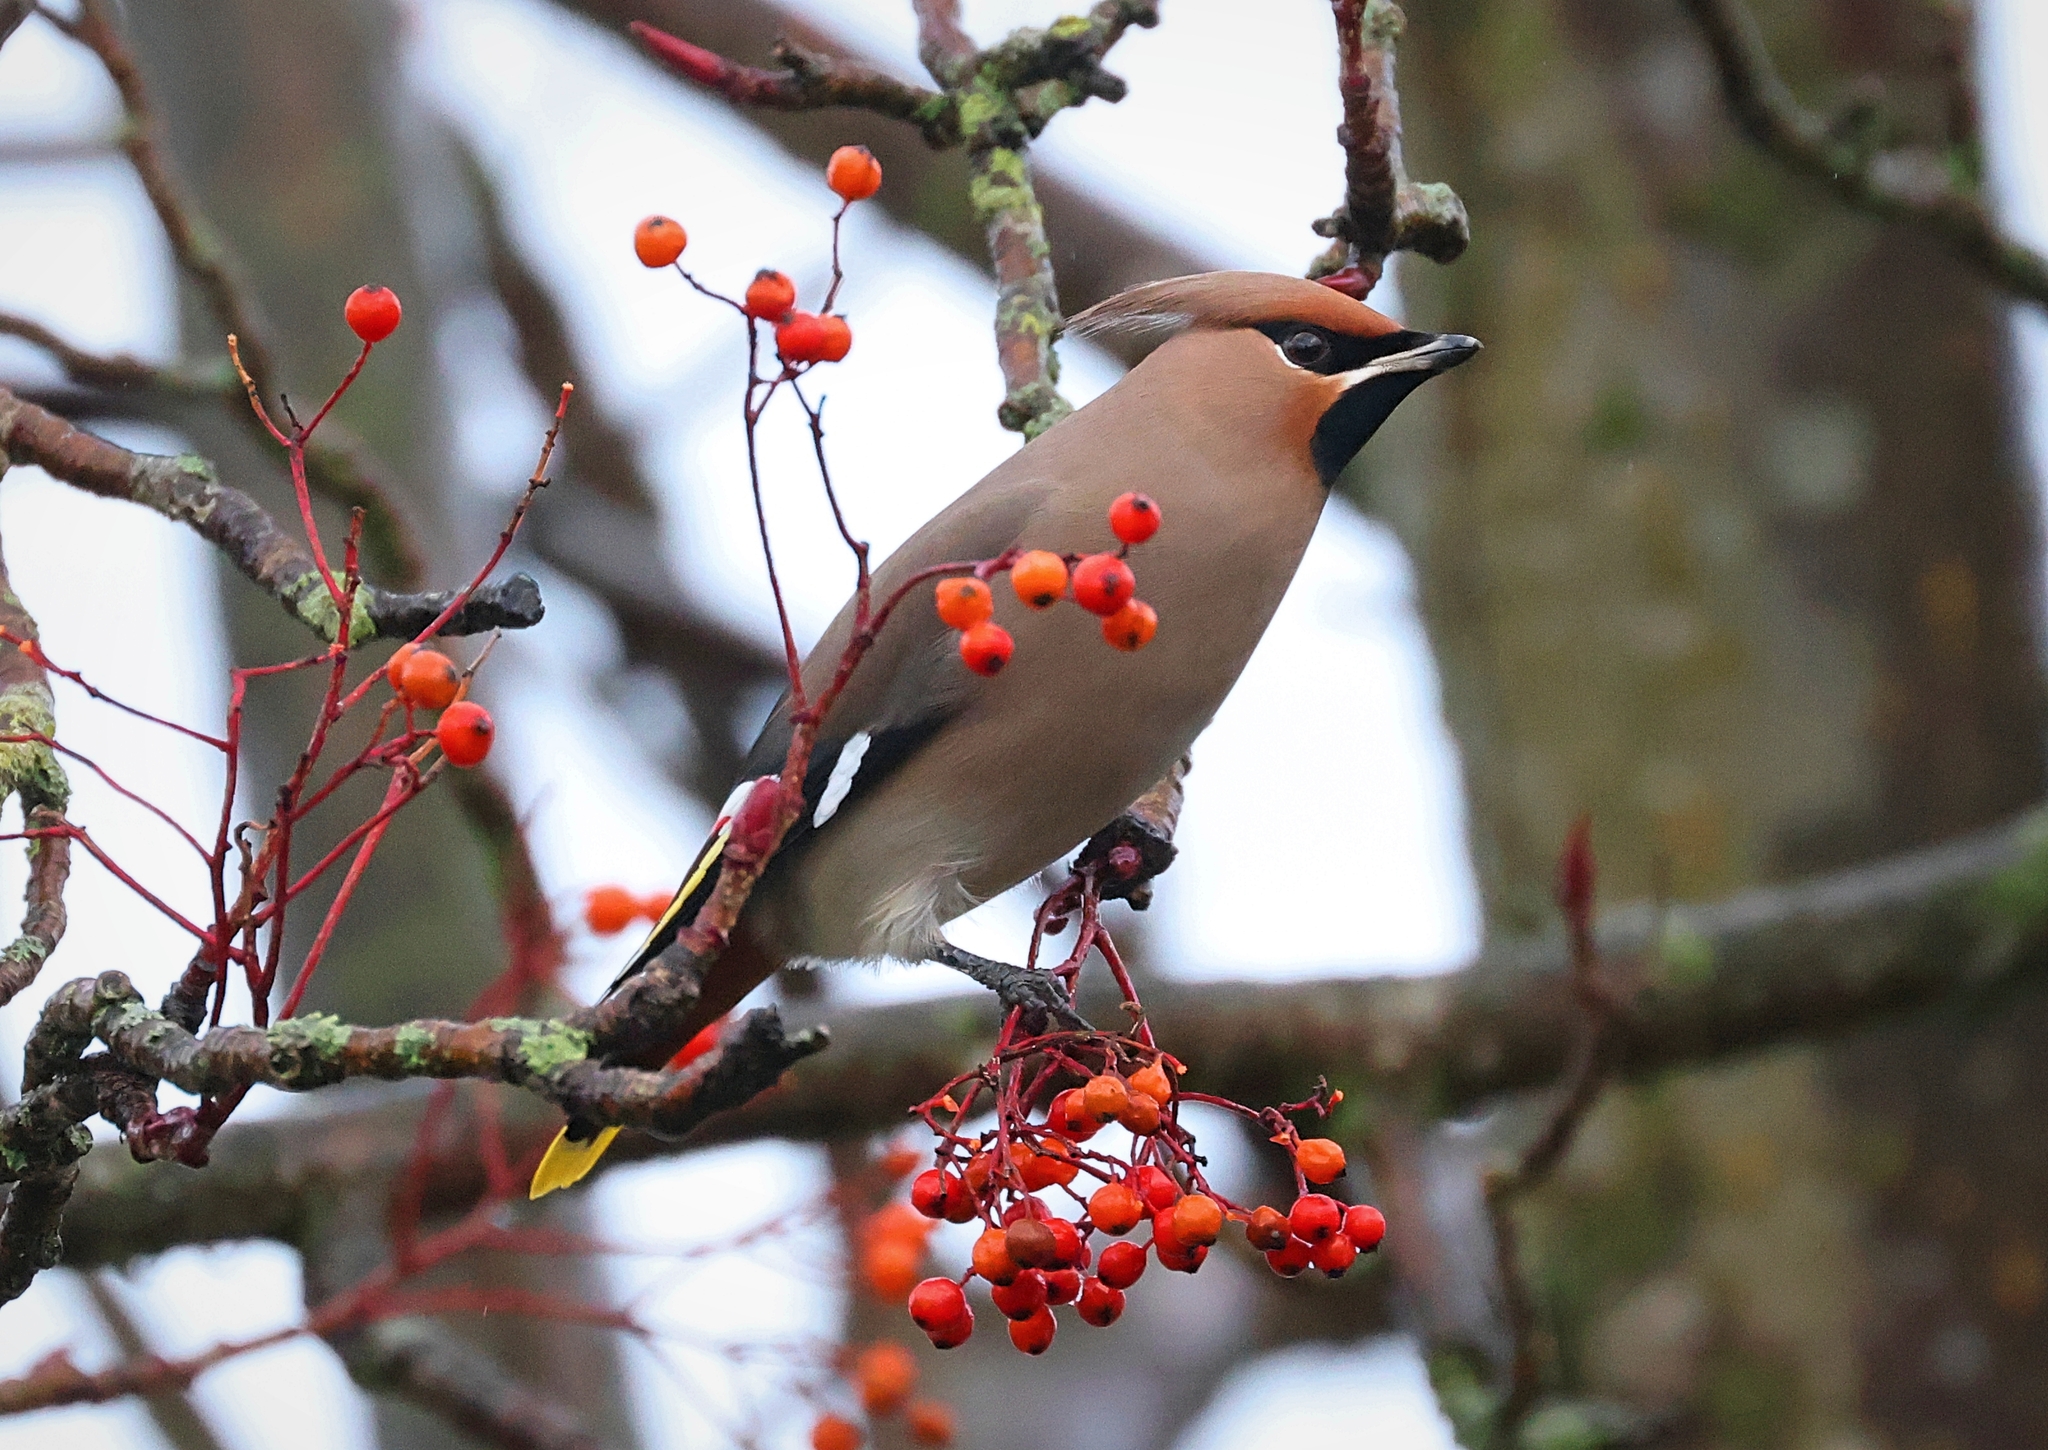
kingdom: Animalia
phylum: Chordata
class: Aves
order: Passeriformes
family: Bombycillidae
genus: Bombycilla
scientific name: Bombycilla garrulus
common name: Bohemian waxwing
